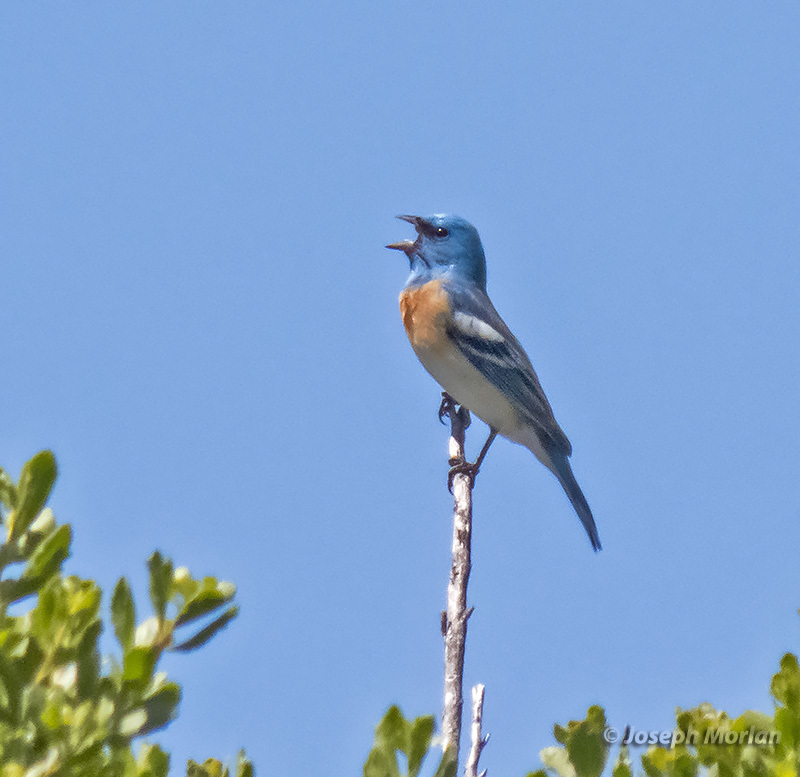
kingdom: Animalia
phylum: Chordata
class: Aves
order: Passeriformes
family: Cardinalidae
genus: Passerina
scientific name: Passerina amoena
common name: Lazuli bunting
